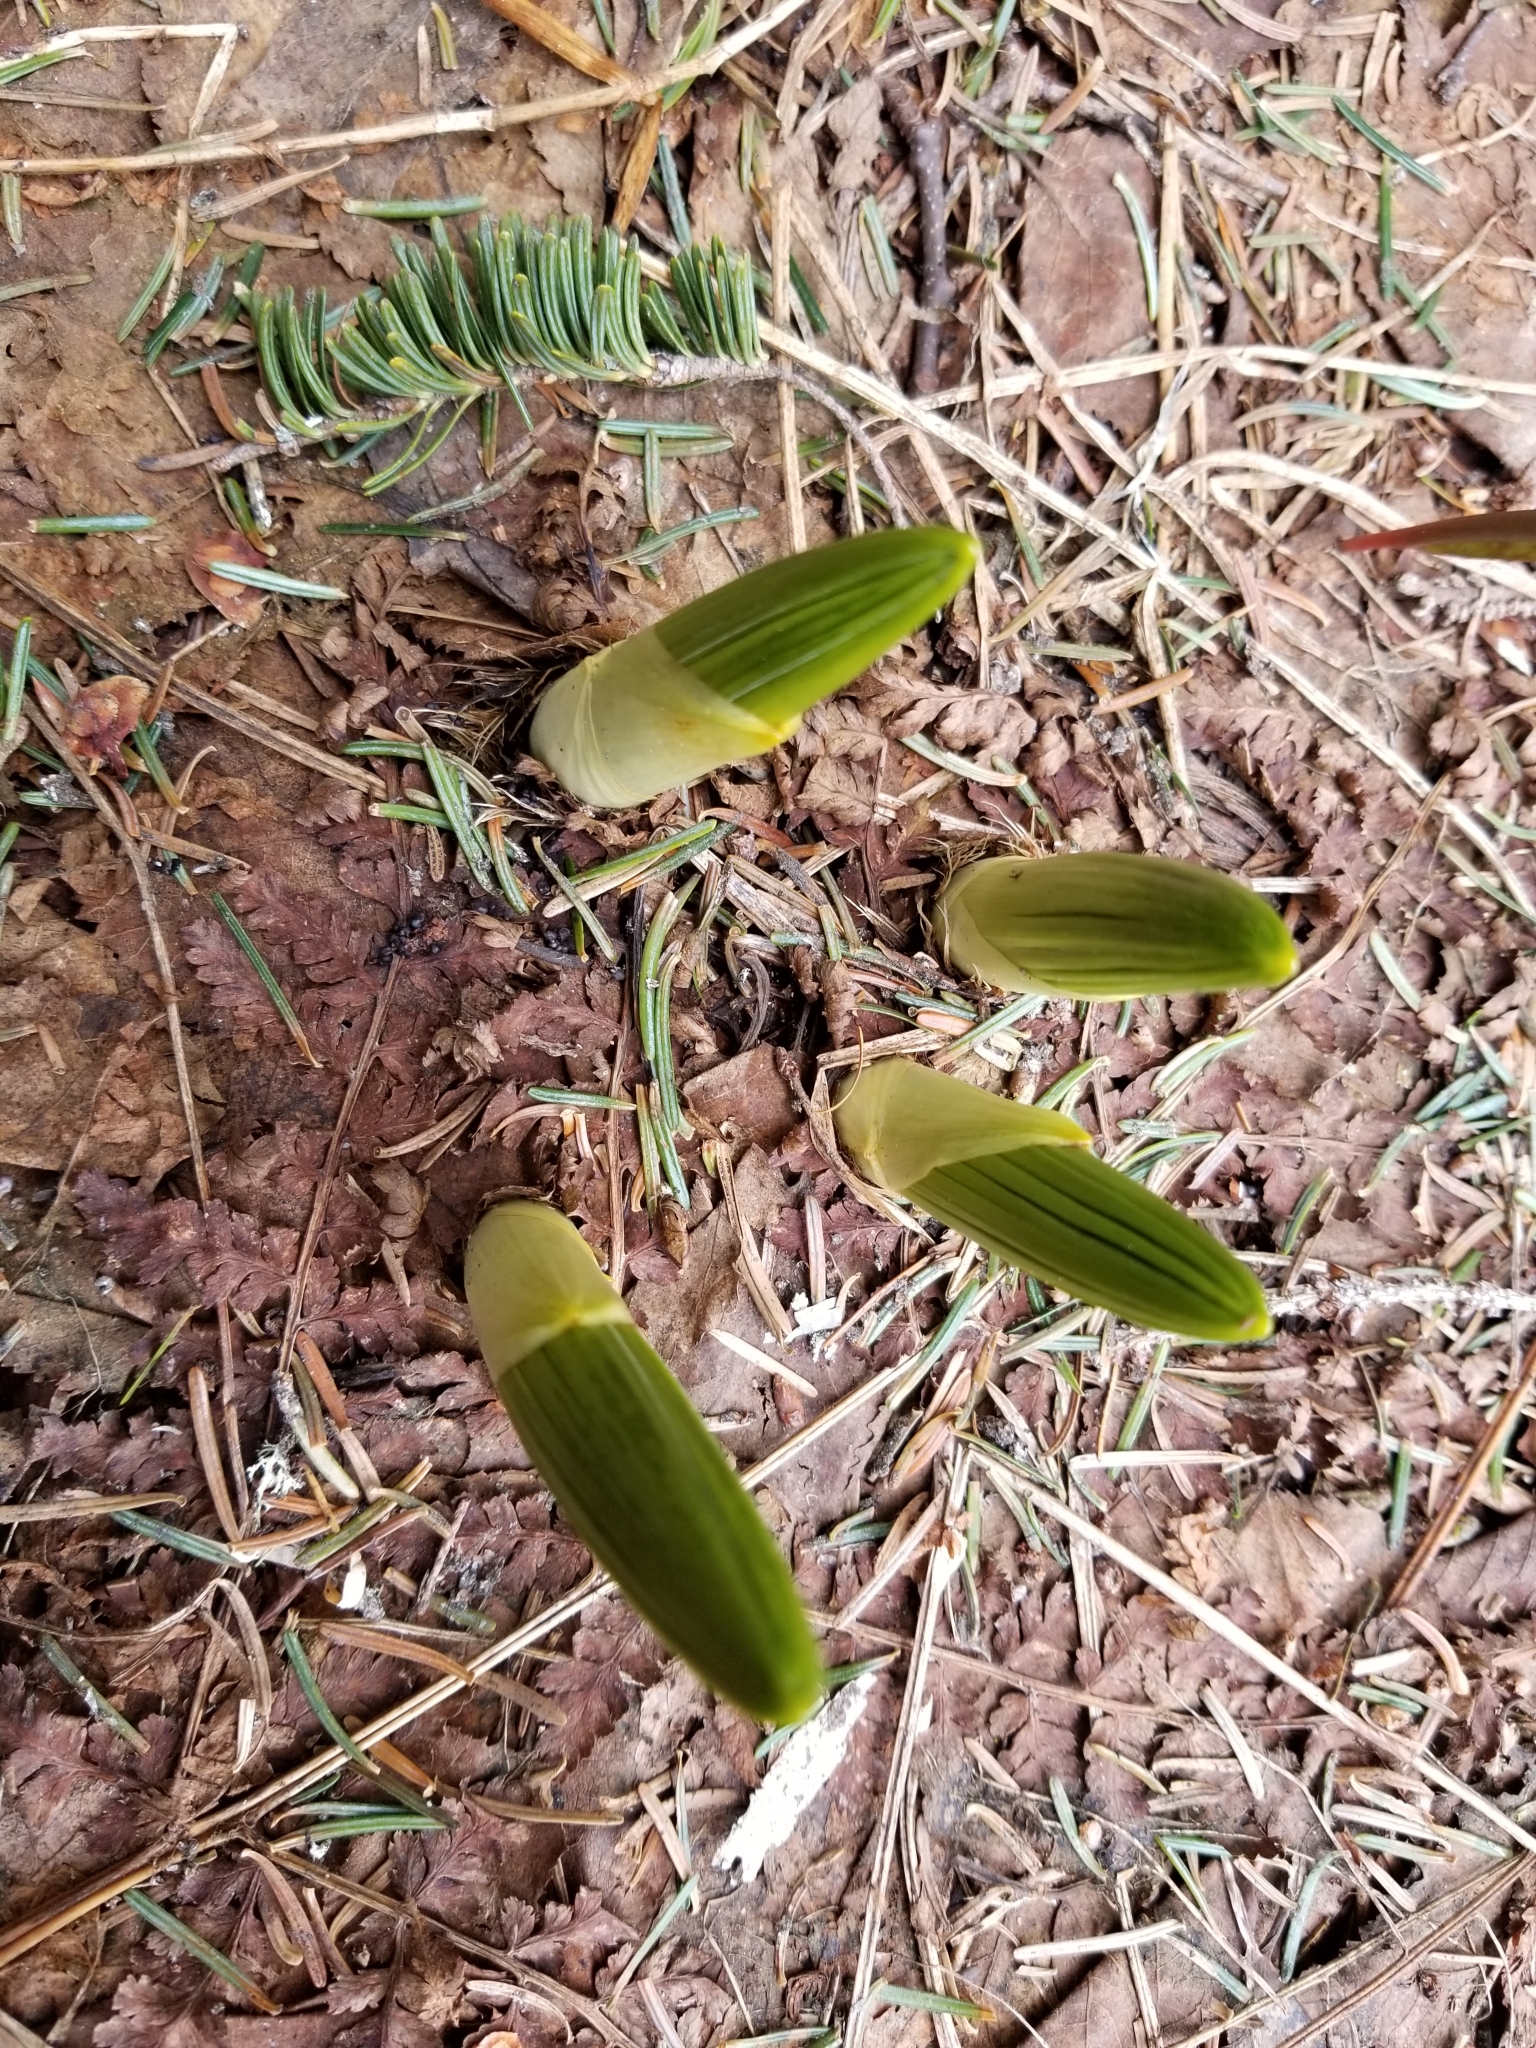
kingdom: Plantae
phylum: Tracheophyta
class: Liliopsida
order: Liliales
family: Melanthiaceae
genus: Veratrum
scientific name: Veratrum viride
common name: American false hellebore
